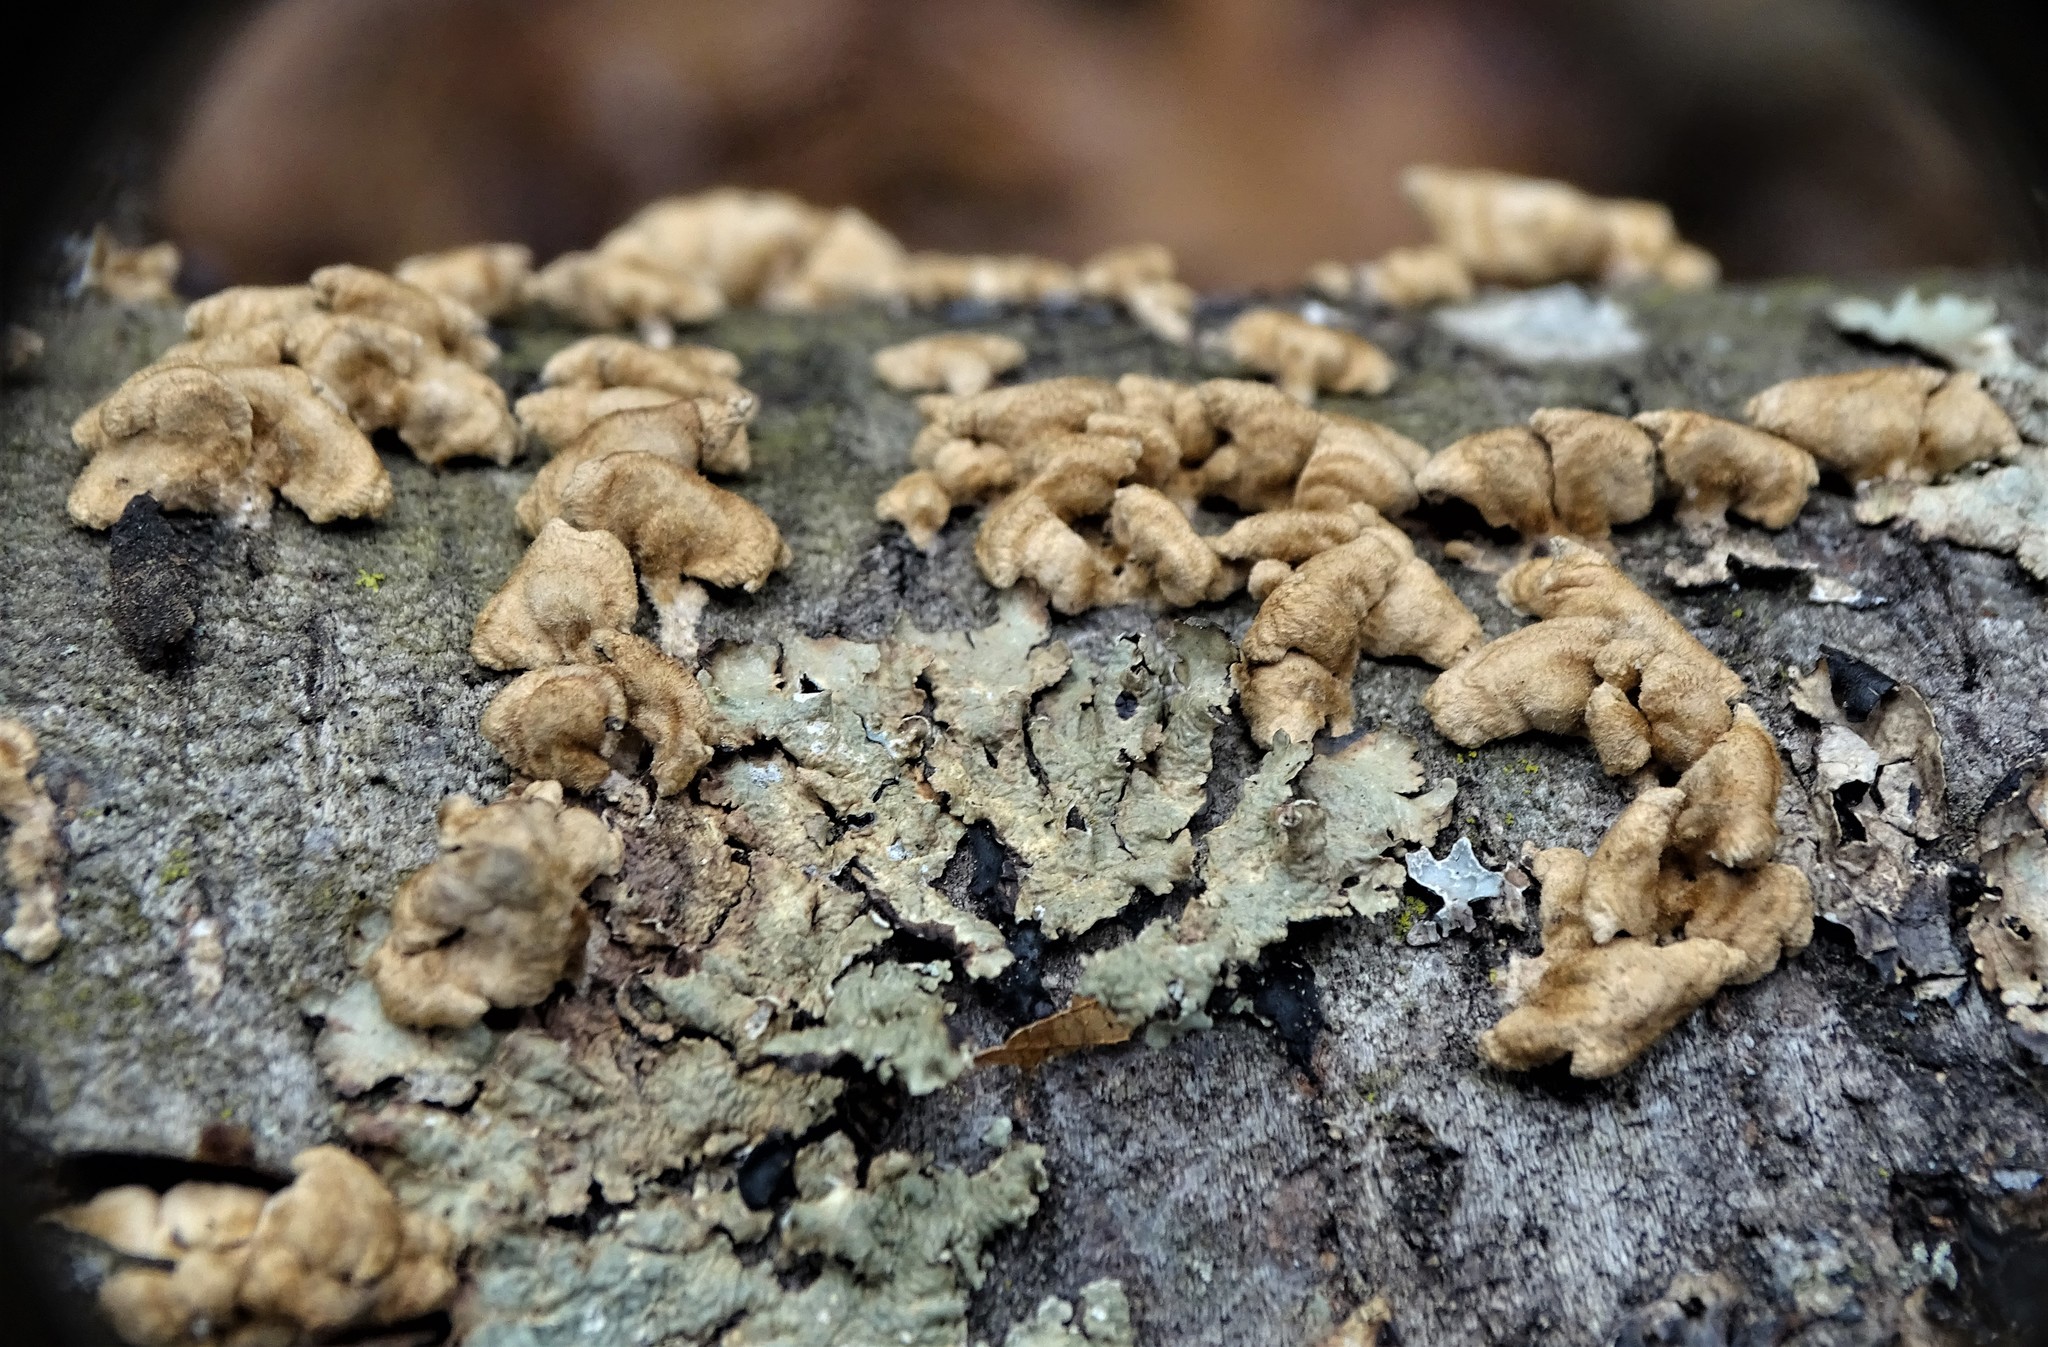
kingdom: Fungi
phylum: Basidiomycota
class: Agaricomycetes
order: Amylocorticiales
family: Amylocorticiaceae
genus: Plicaturopsis
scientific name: Plicaturopsis crispa
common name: Crimped gill
